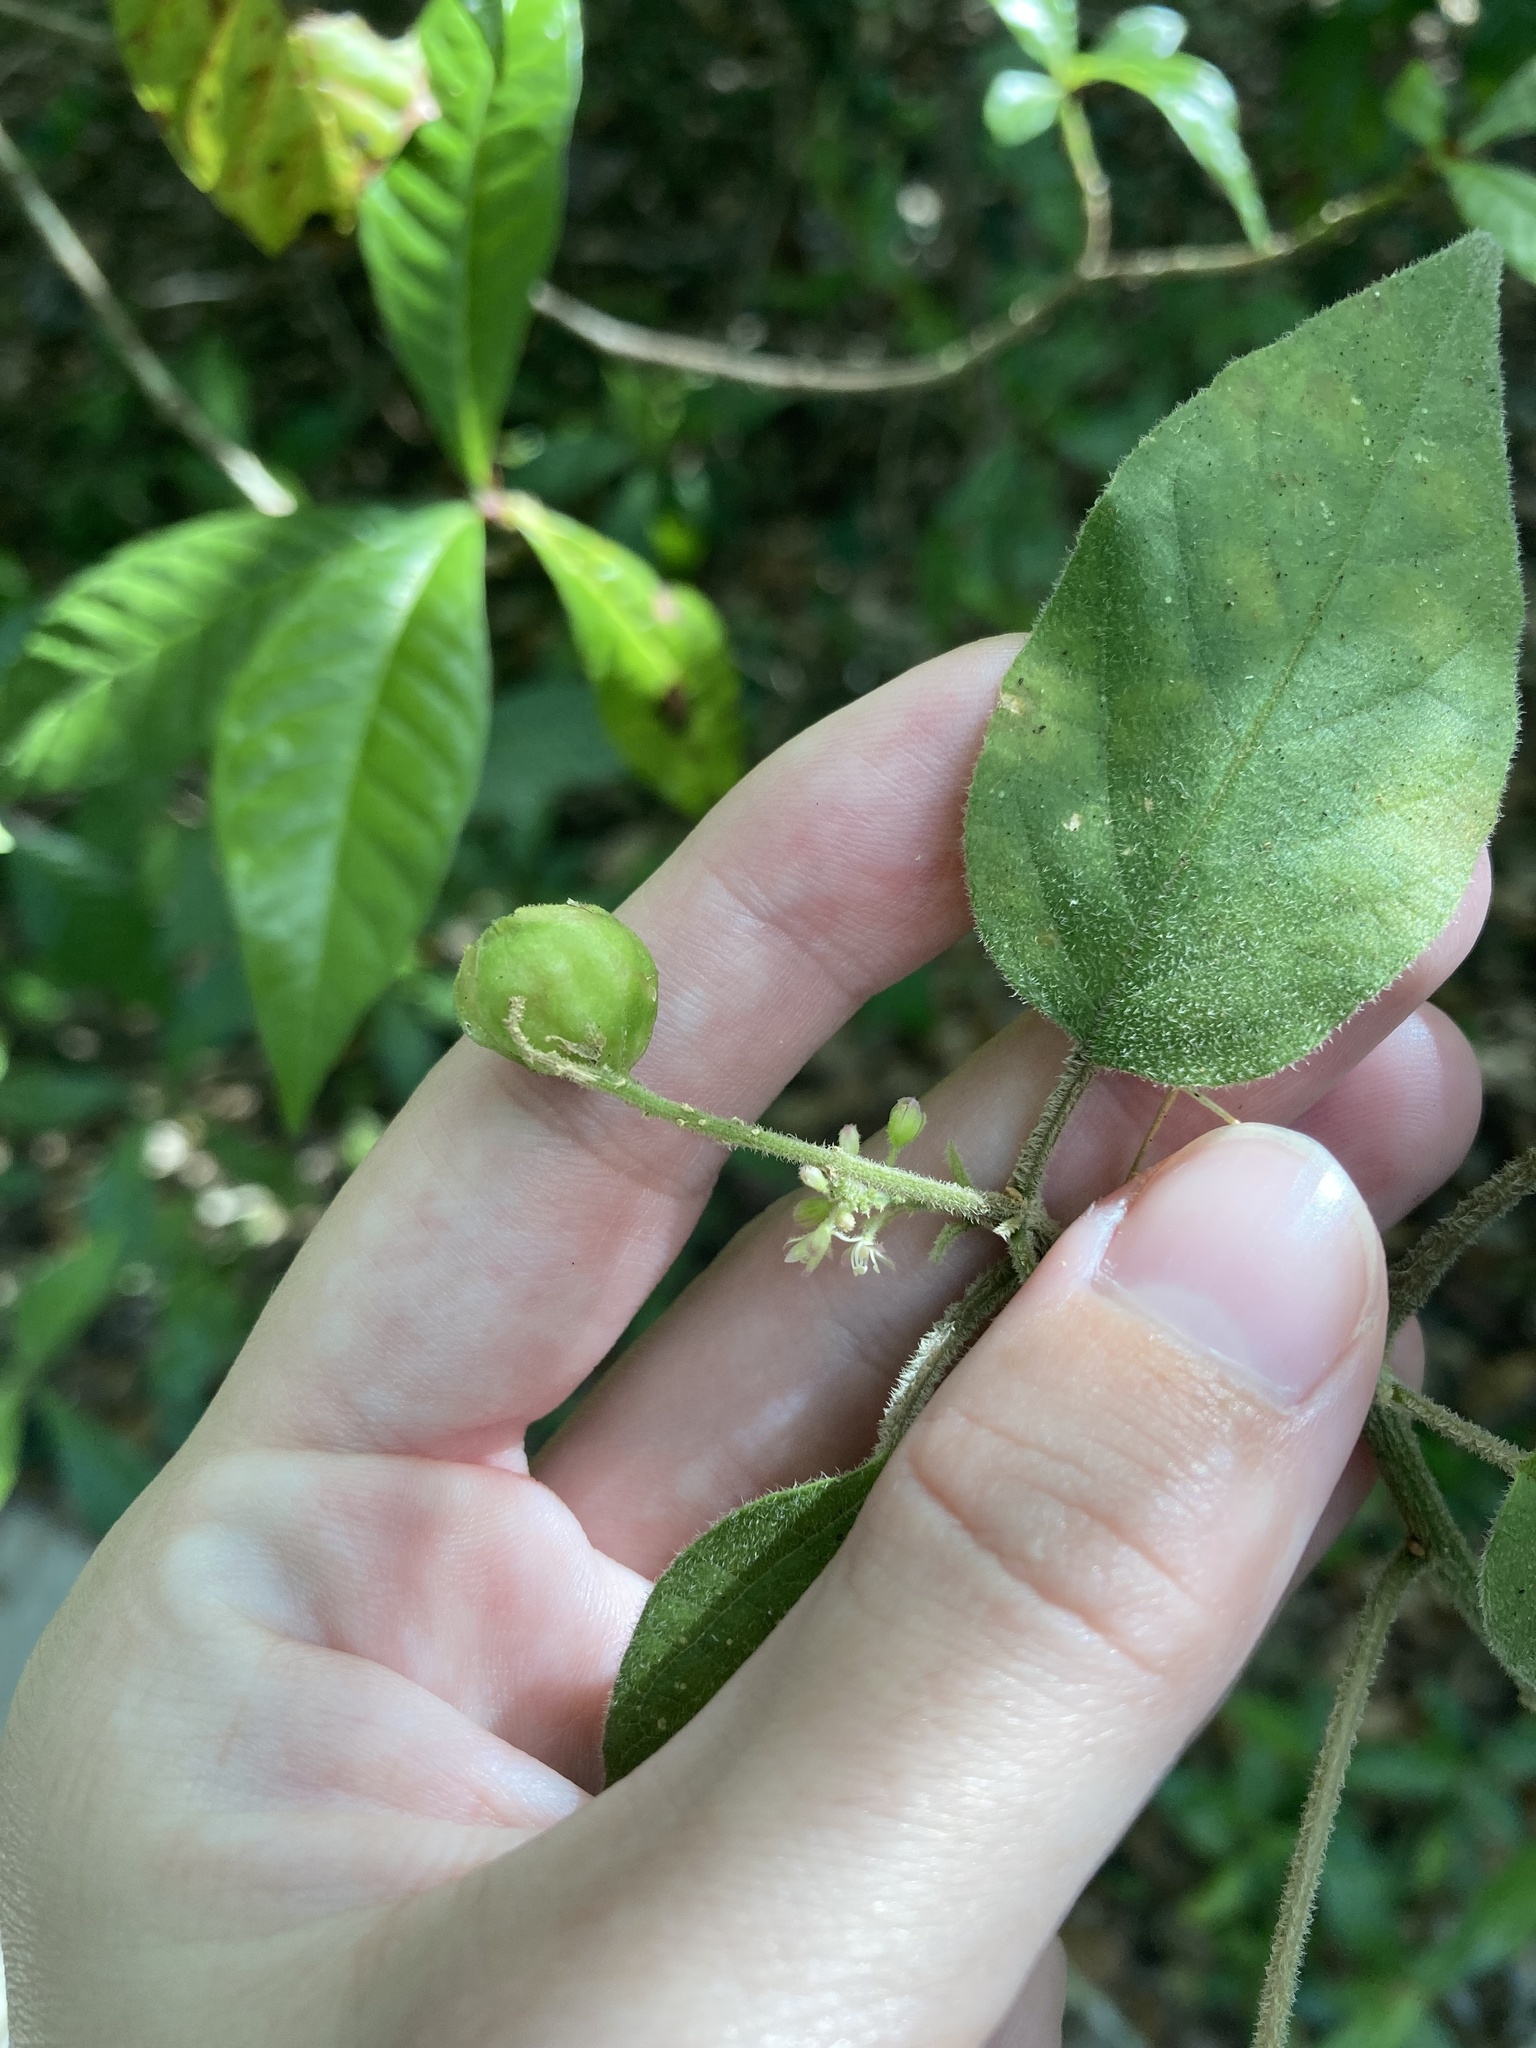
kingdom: Plantae
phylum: Tracheophyta
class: Magnoliopsida
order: Caryophyllales
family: Phytolaccaceae
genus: Rivina
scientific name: Rivina humilis
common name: Rougeplant
